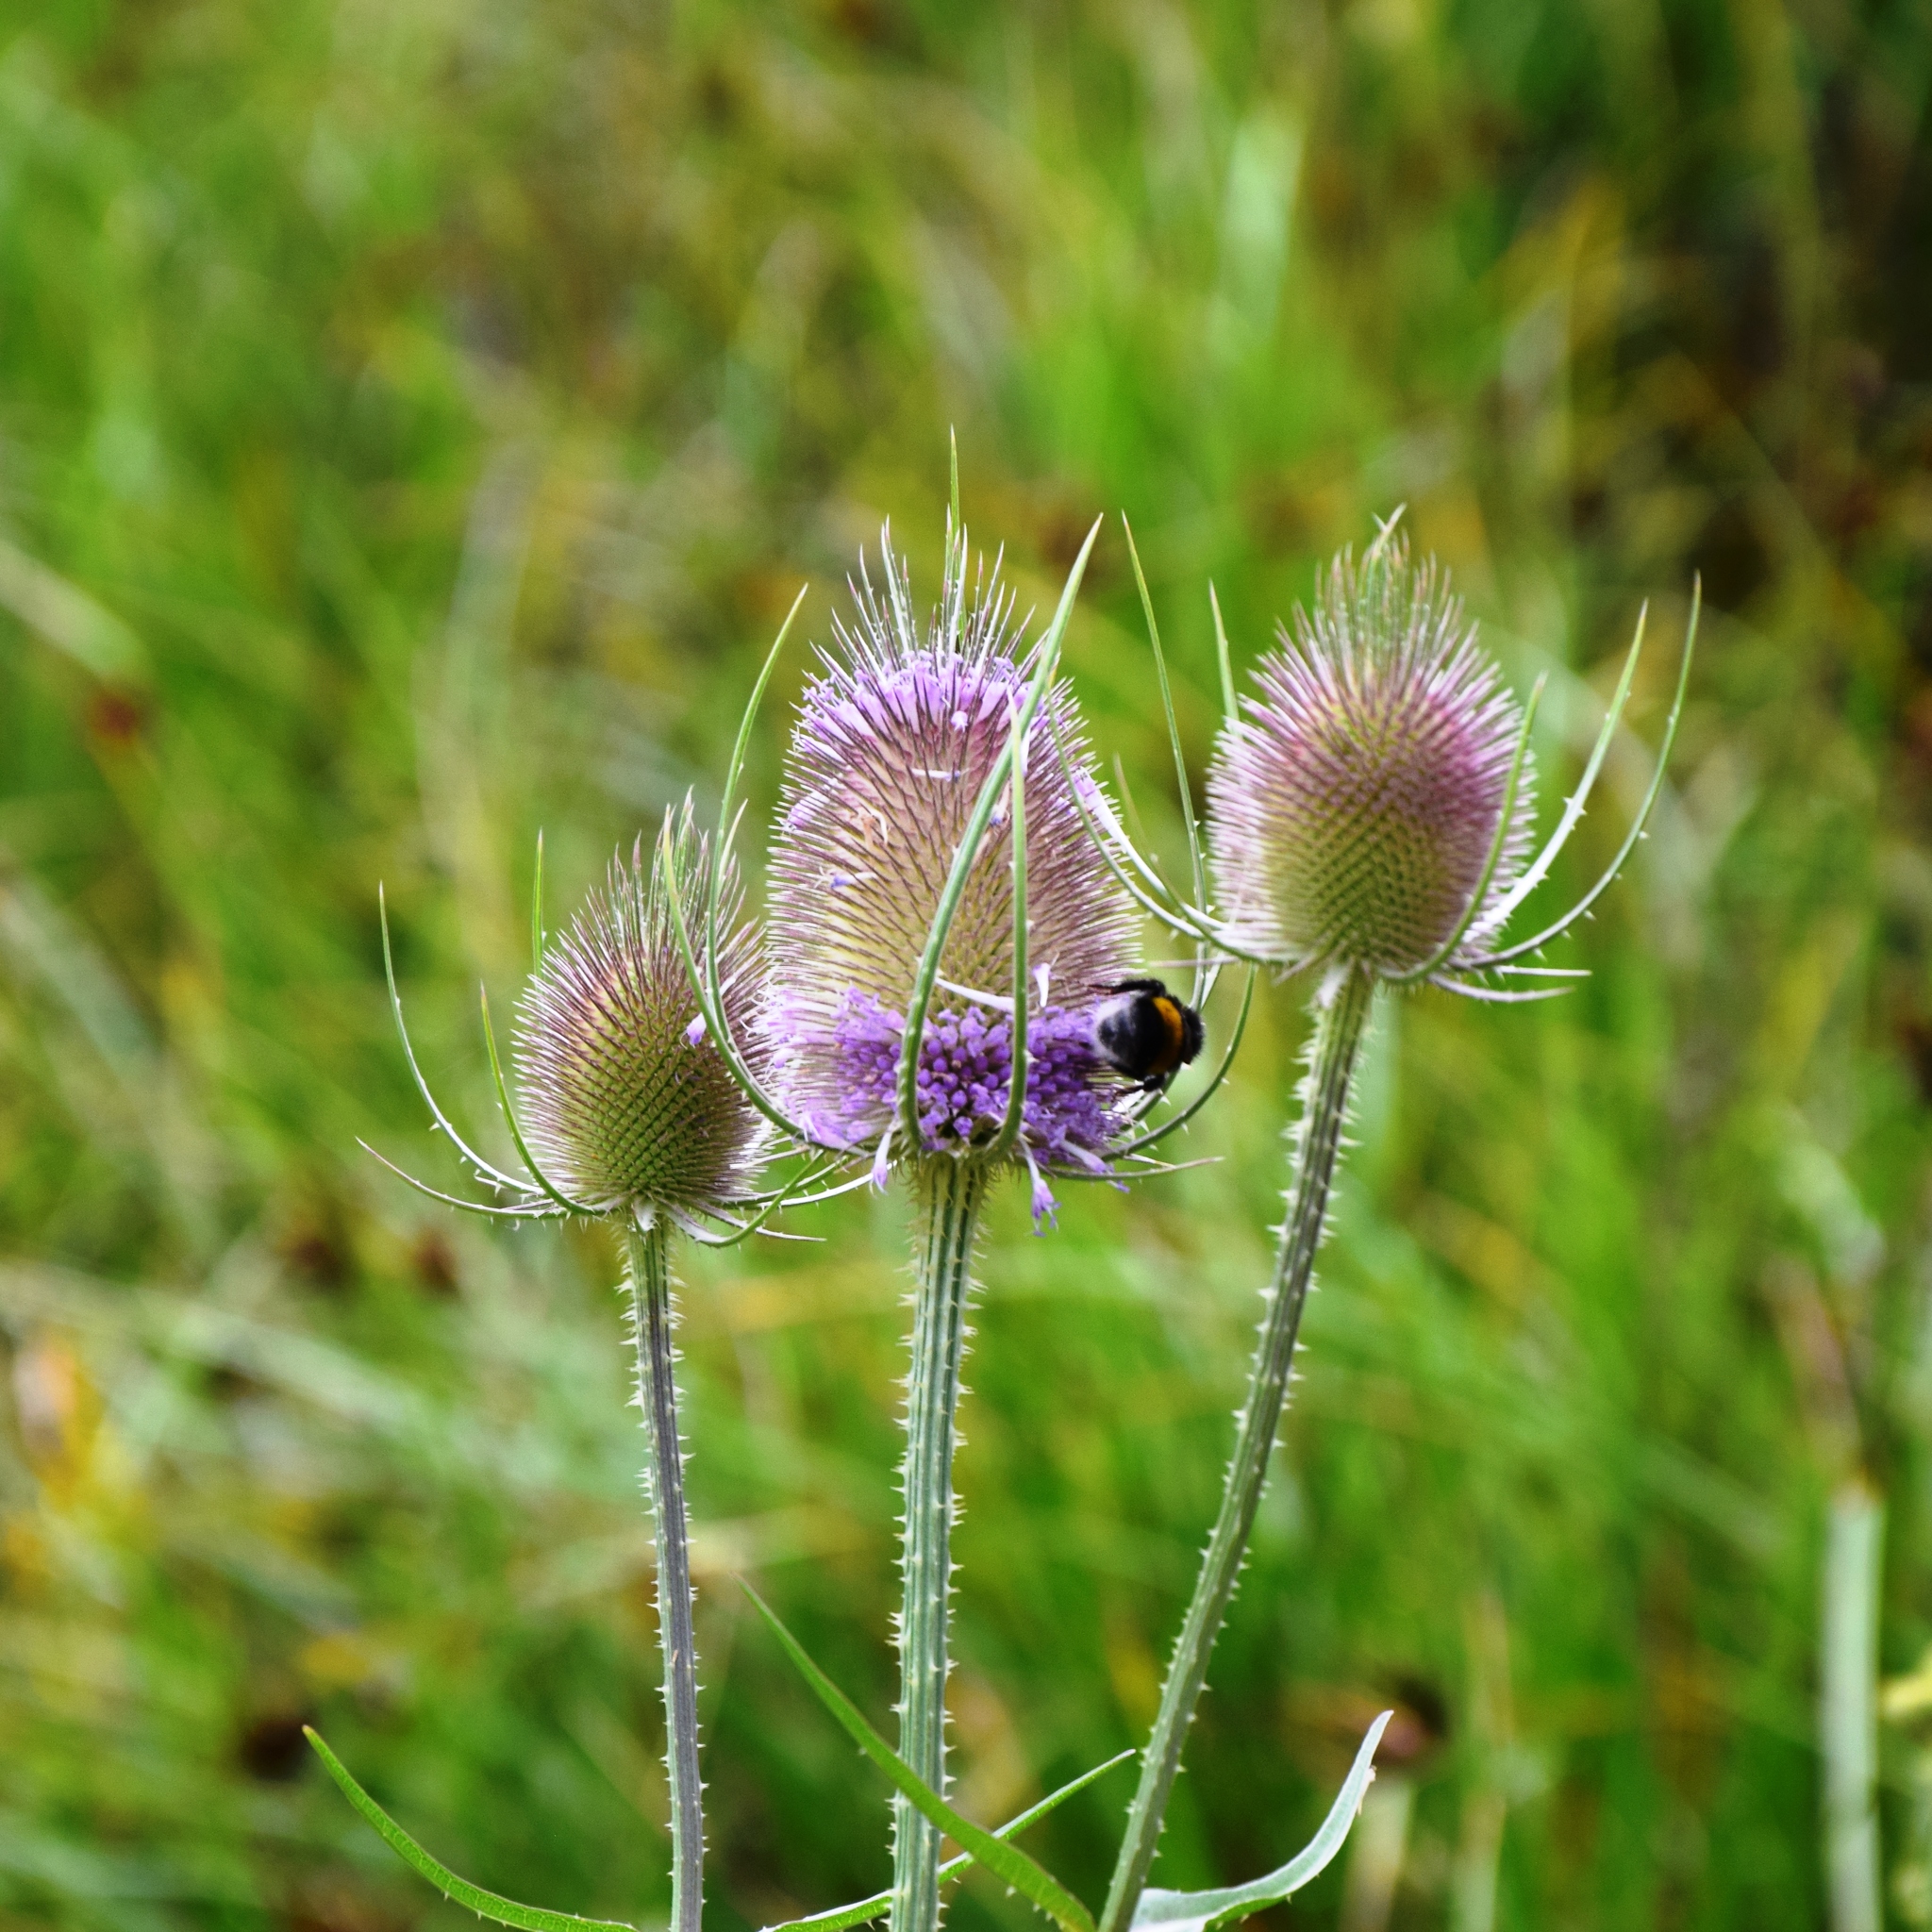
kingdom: Plantae
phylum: Tracheophyta
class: Magnoliopsida
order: Dipsacales
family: Caprifoliaceae
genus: Dipsacus
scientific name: Dipsacus fullonum
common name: Teasel
